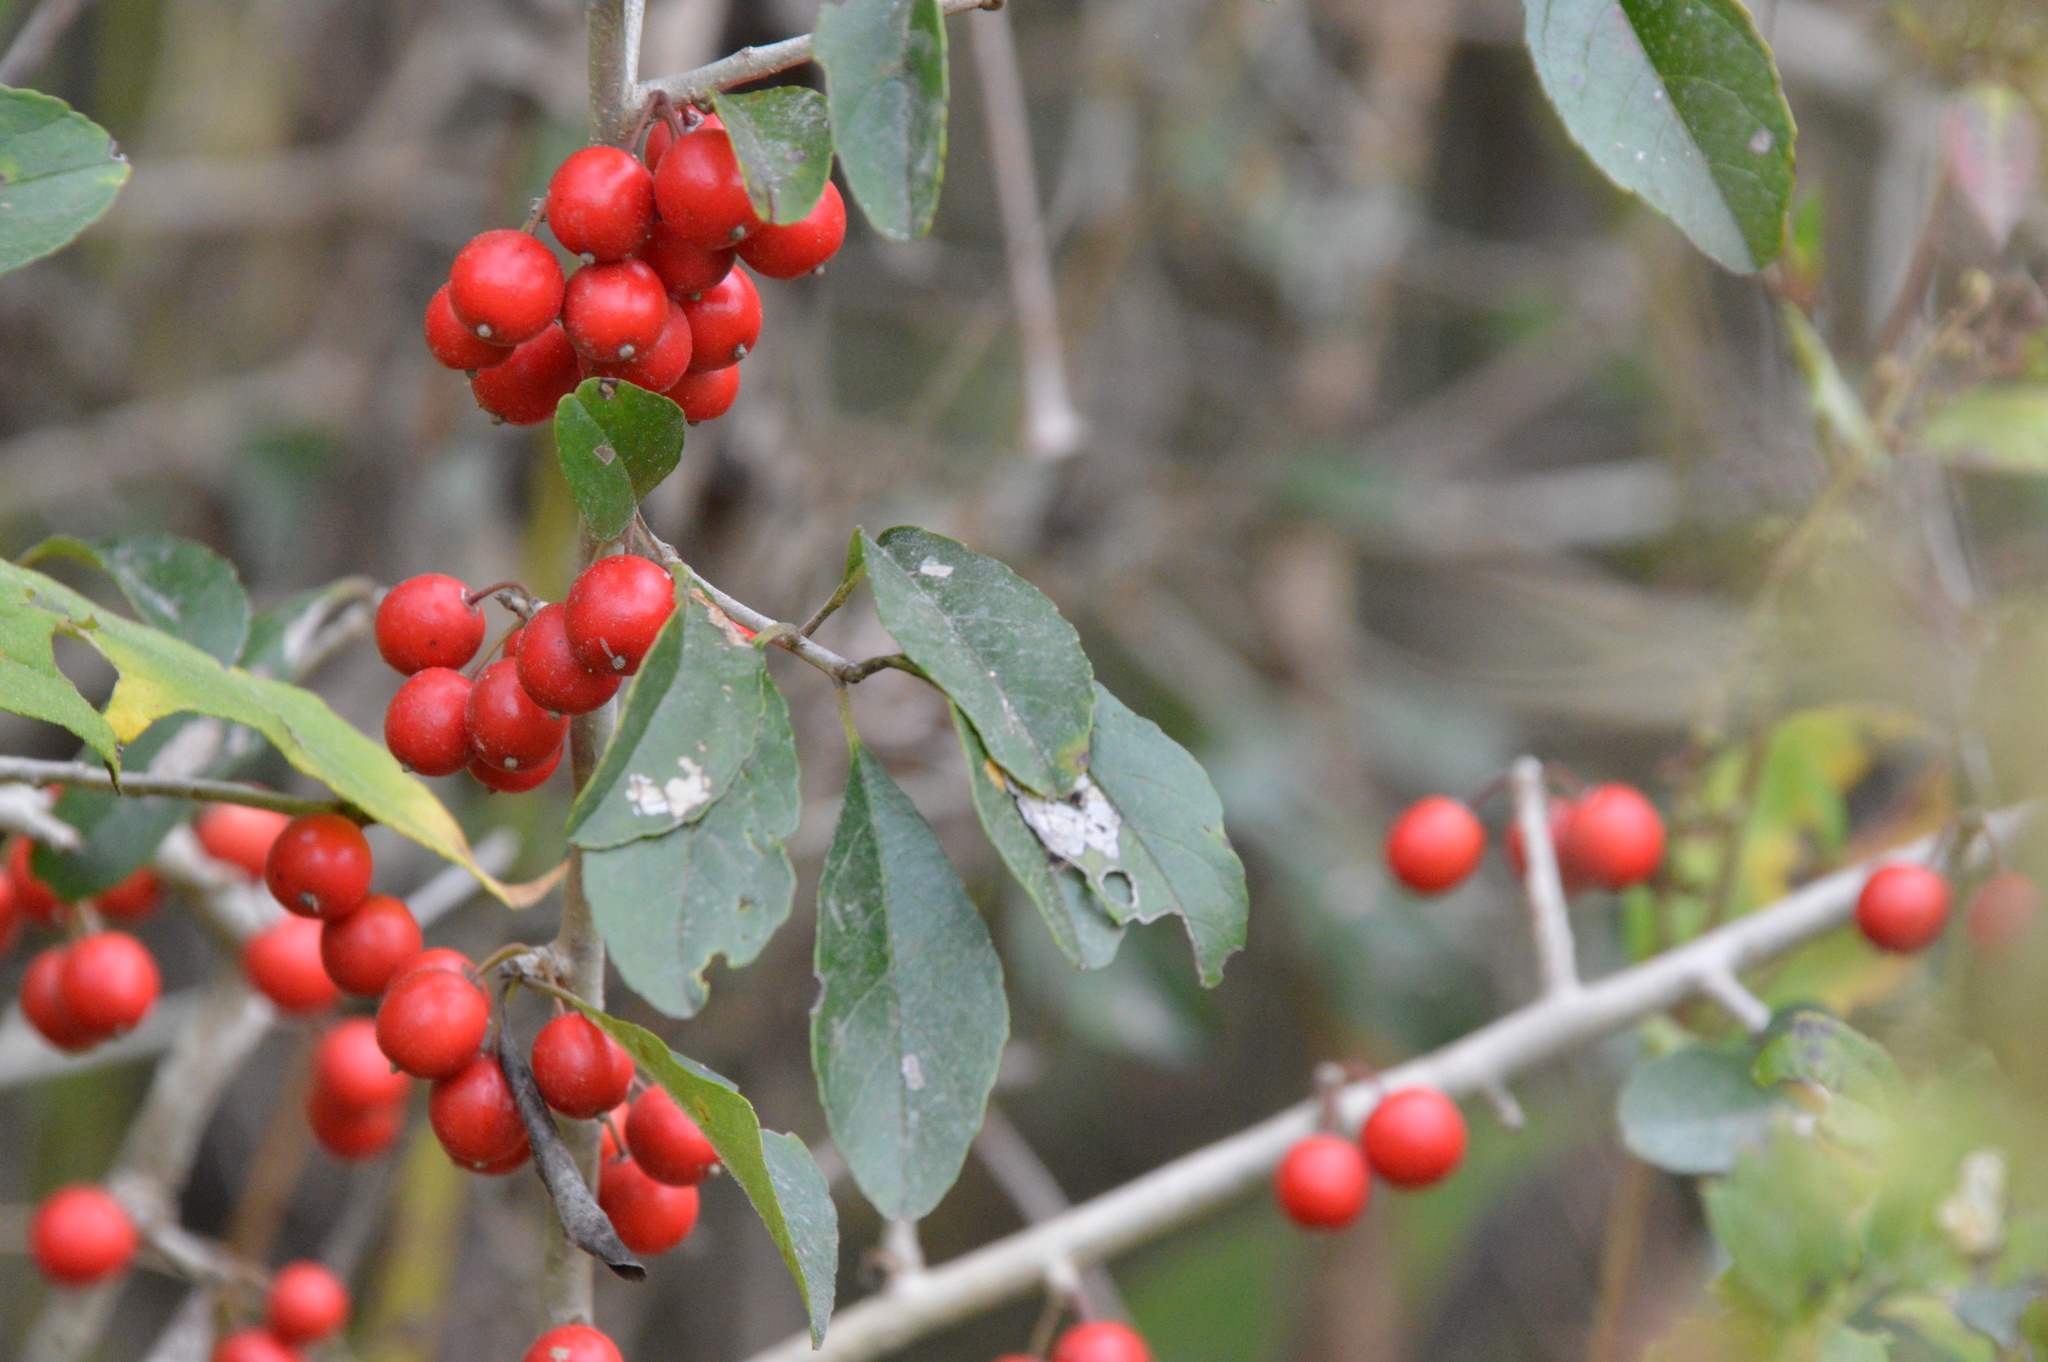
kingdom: Plantae
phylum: Tracheophyta
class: Magnoliopsida
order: Aquifoliales
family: Aquifoliaceae
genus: Ilex
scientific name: Ilex decidua
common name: Possum-haw
